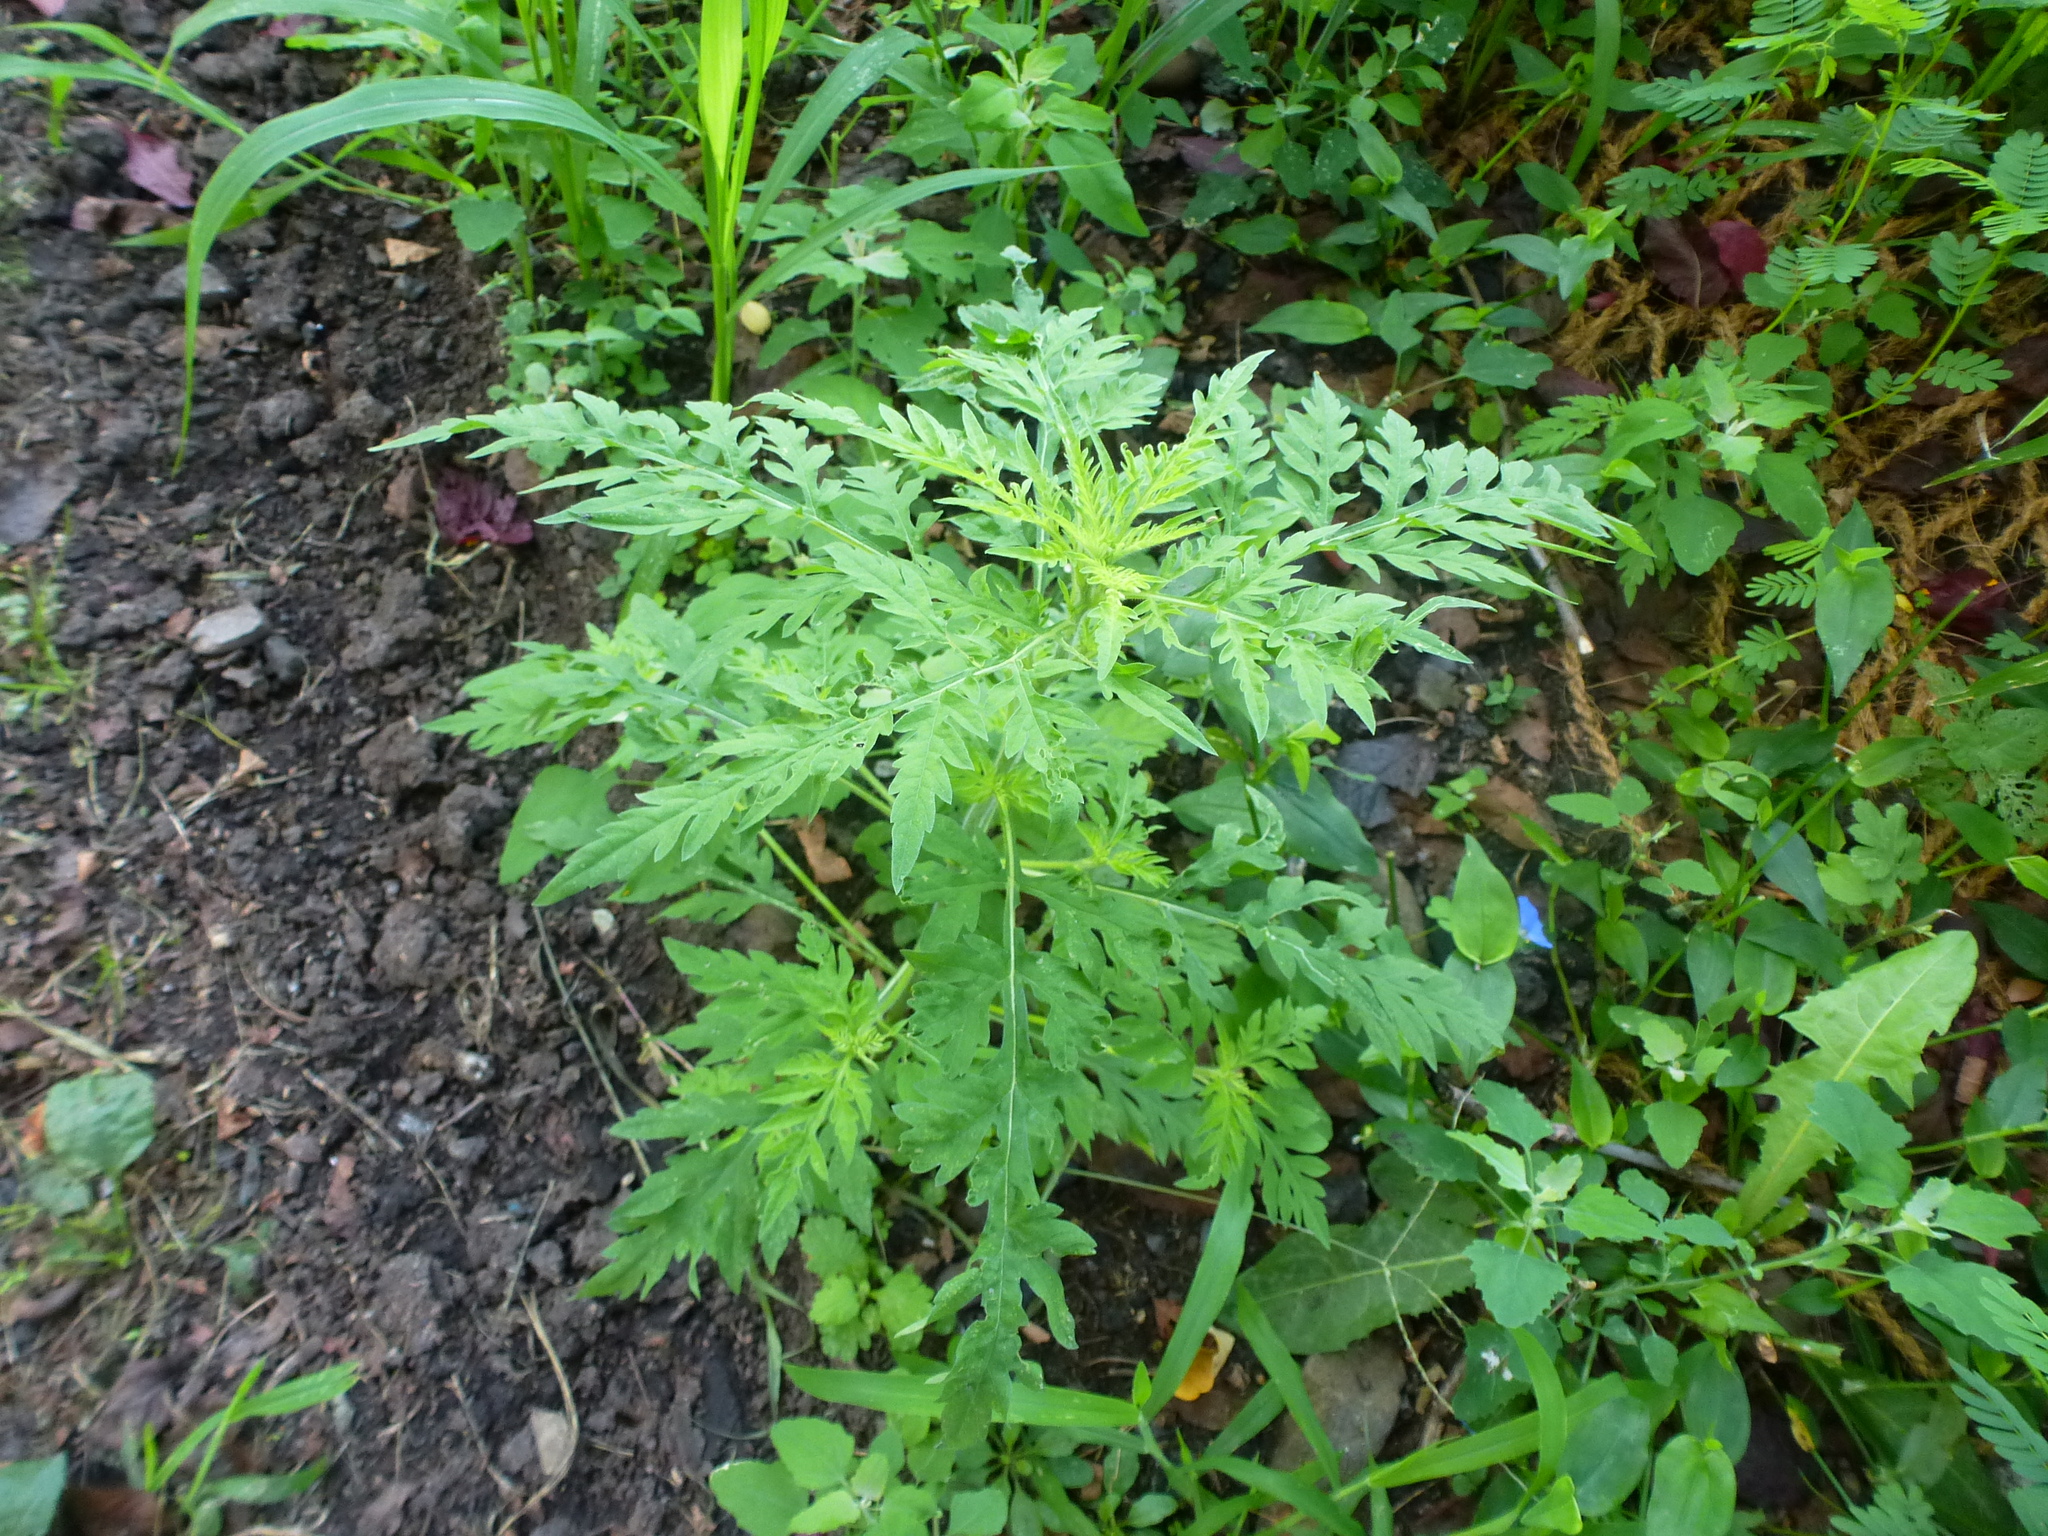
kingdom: Plantae
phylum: Tracheophyta
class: Magnoliopsida
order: Asterales
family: Asteraceae
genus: Ambrosia
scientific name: Ambrosia artemisiifolia
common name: Annual ragweed
